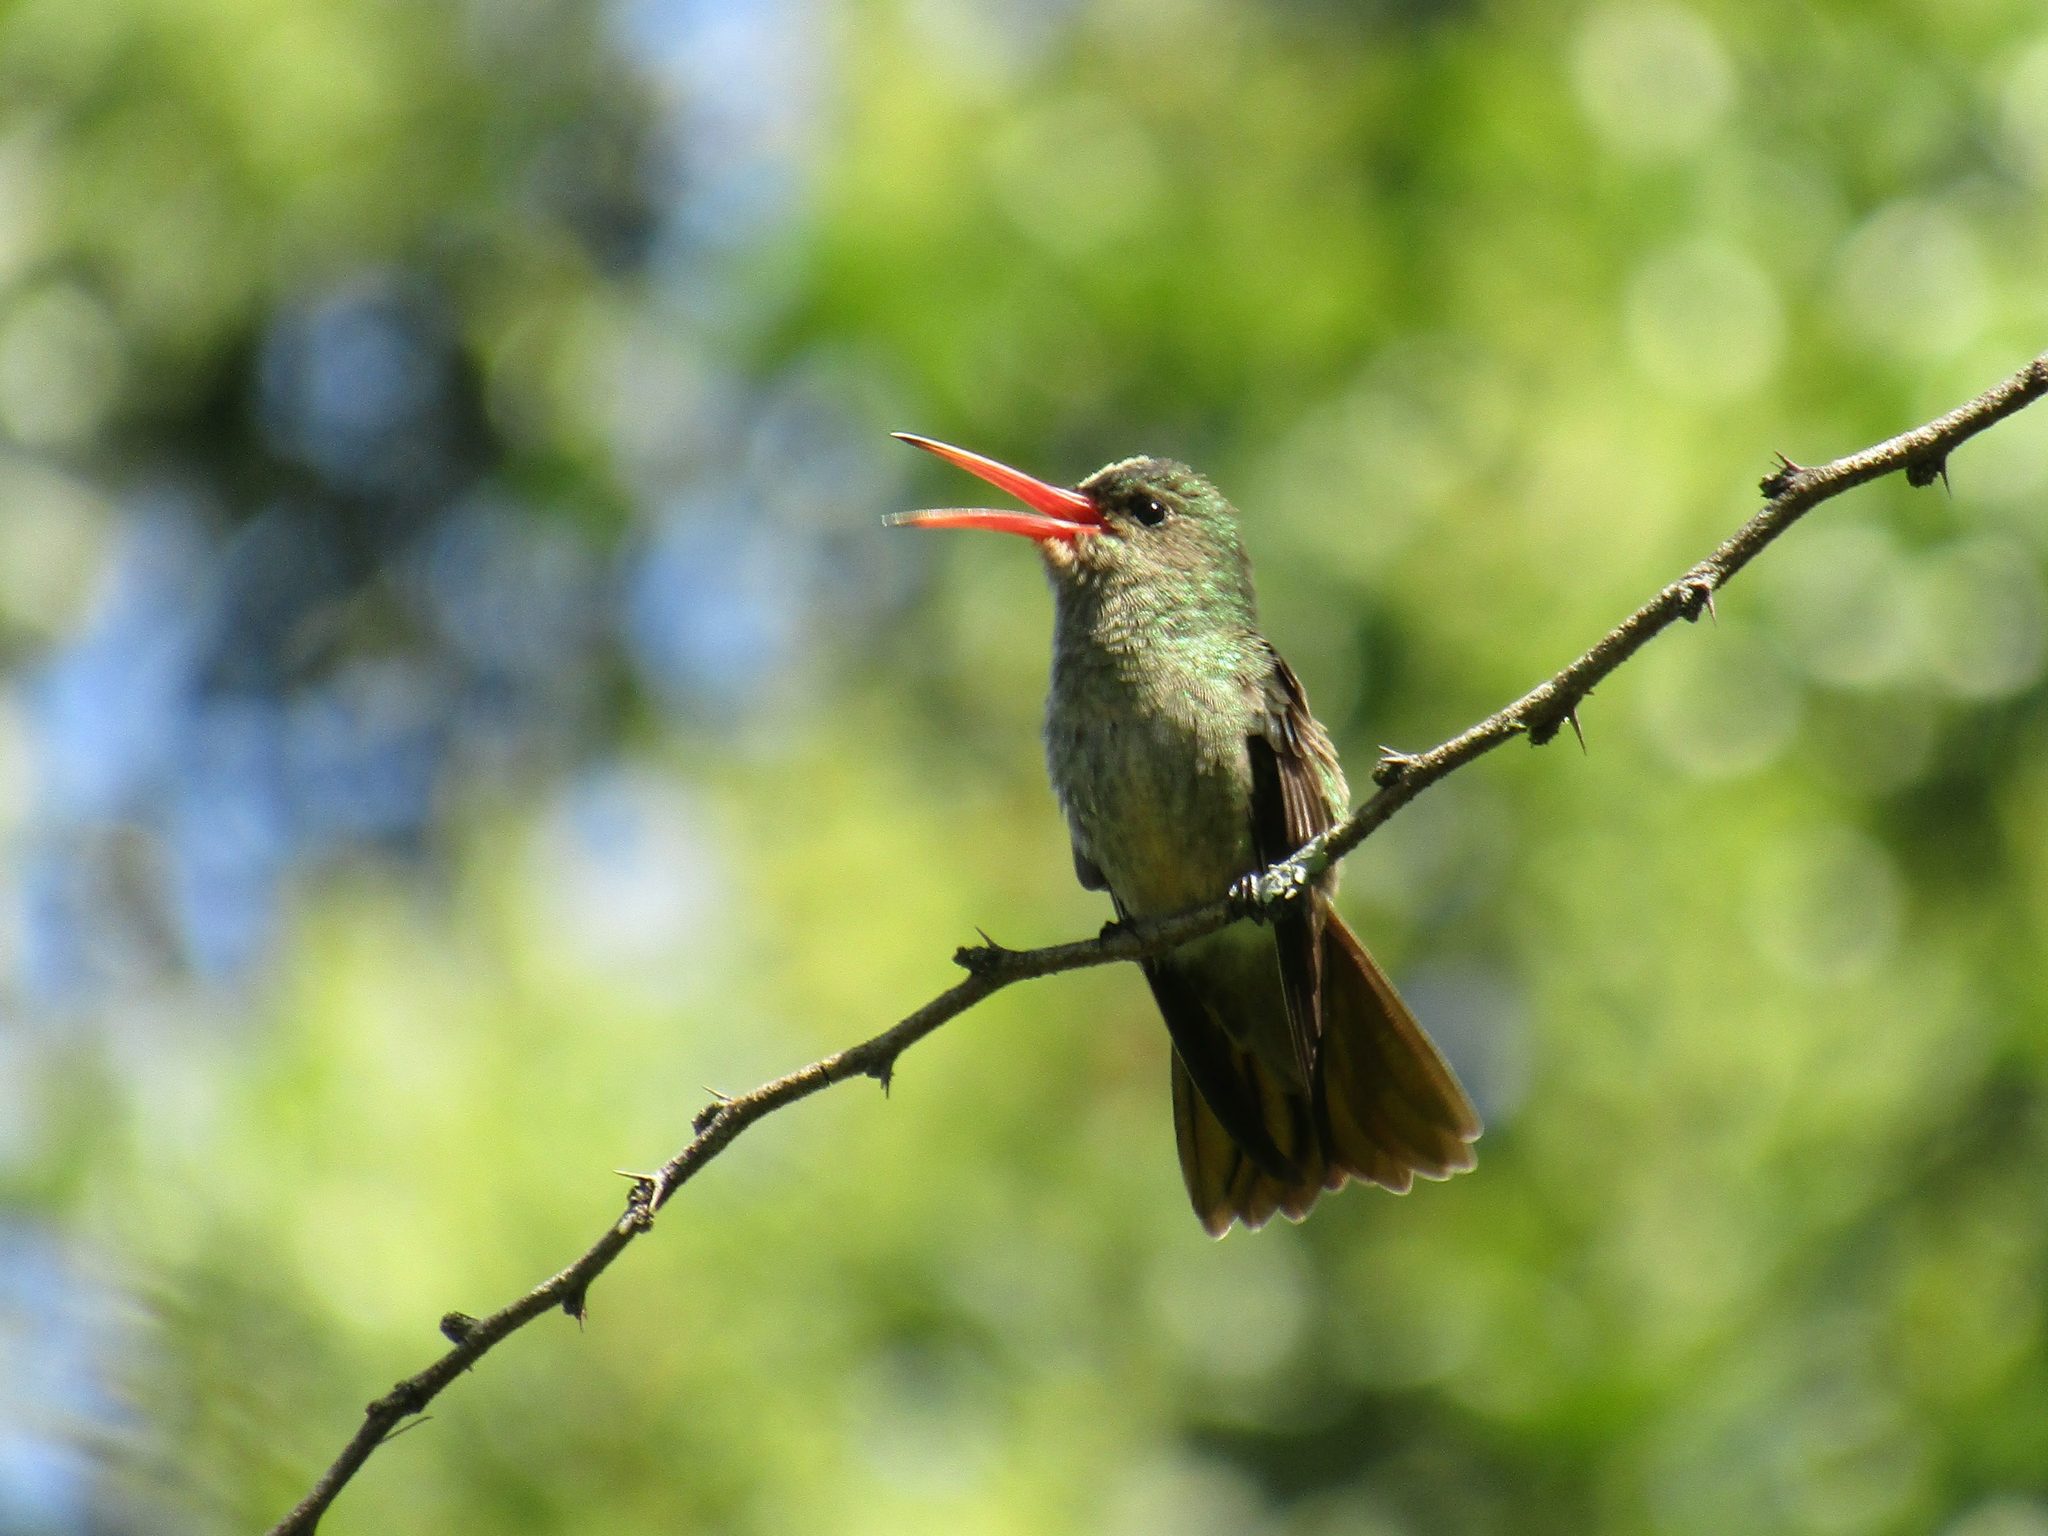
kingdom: Animalia
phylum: Chordata
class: Aves
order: Apodiformes
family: Trochilidae
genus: Hylocharis
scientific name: Hylocharis chrysura
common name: Gilded sapphire
